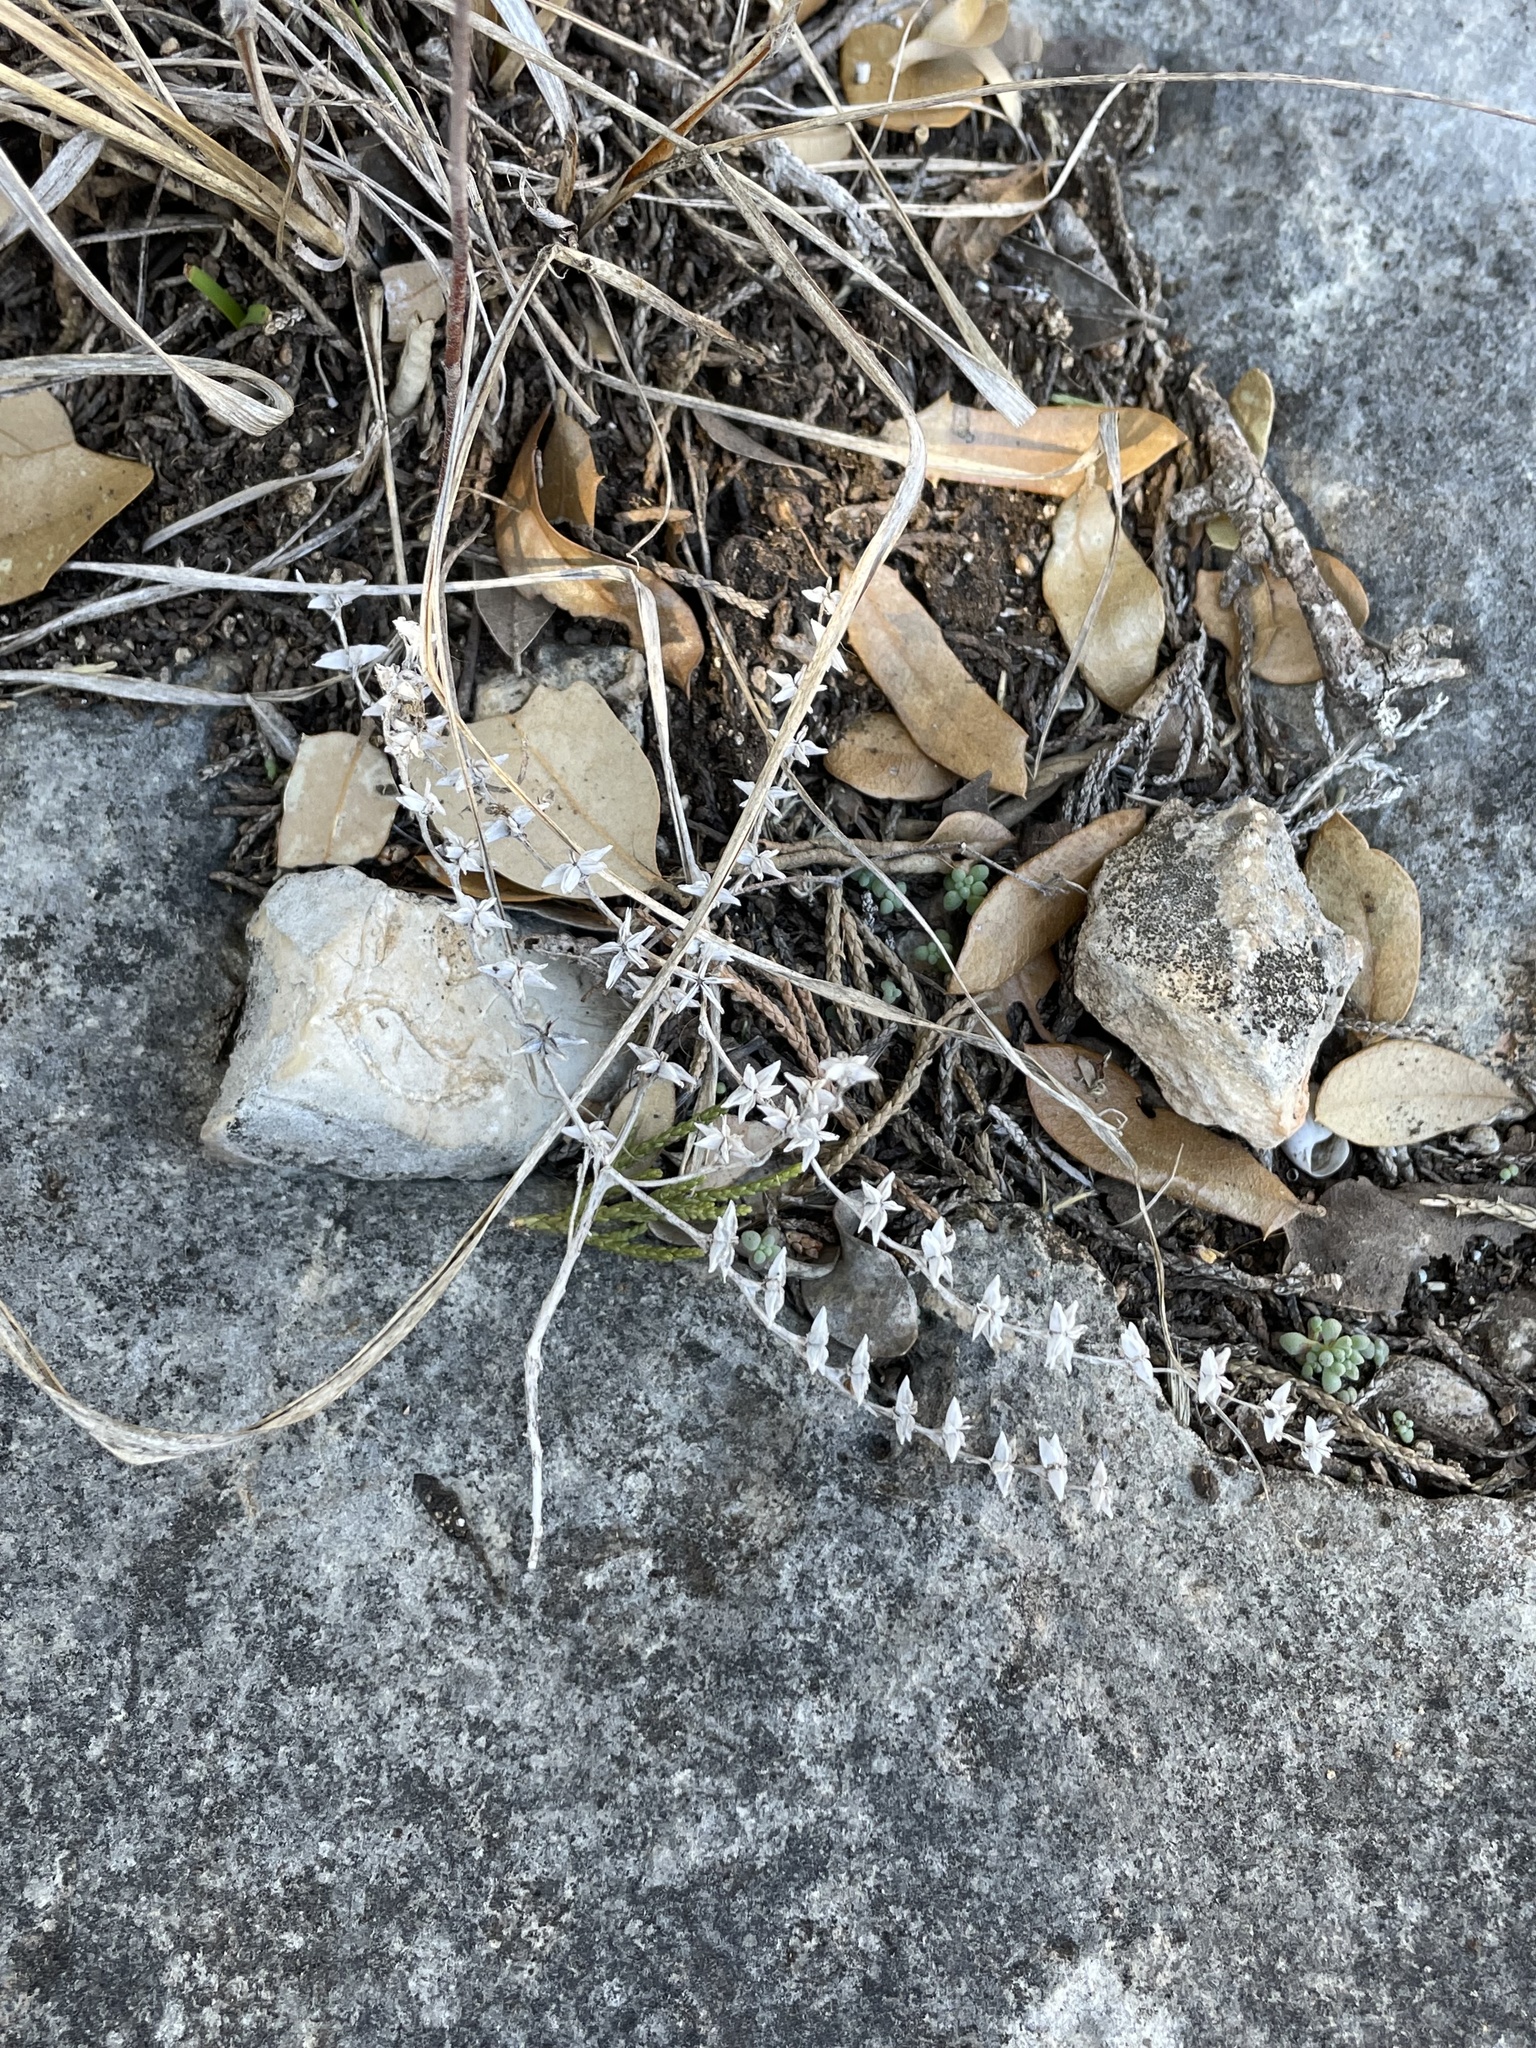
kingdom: Plantae
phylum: Tracheophyta
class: Magnoliopsida
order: Saxifragales
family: Crassulaceae
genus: Sedum
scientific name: Sedum nuttallii
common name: Yellow stonecrop
